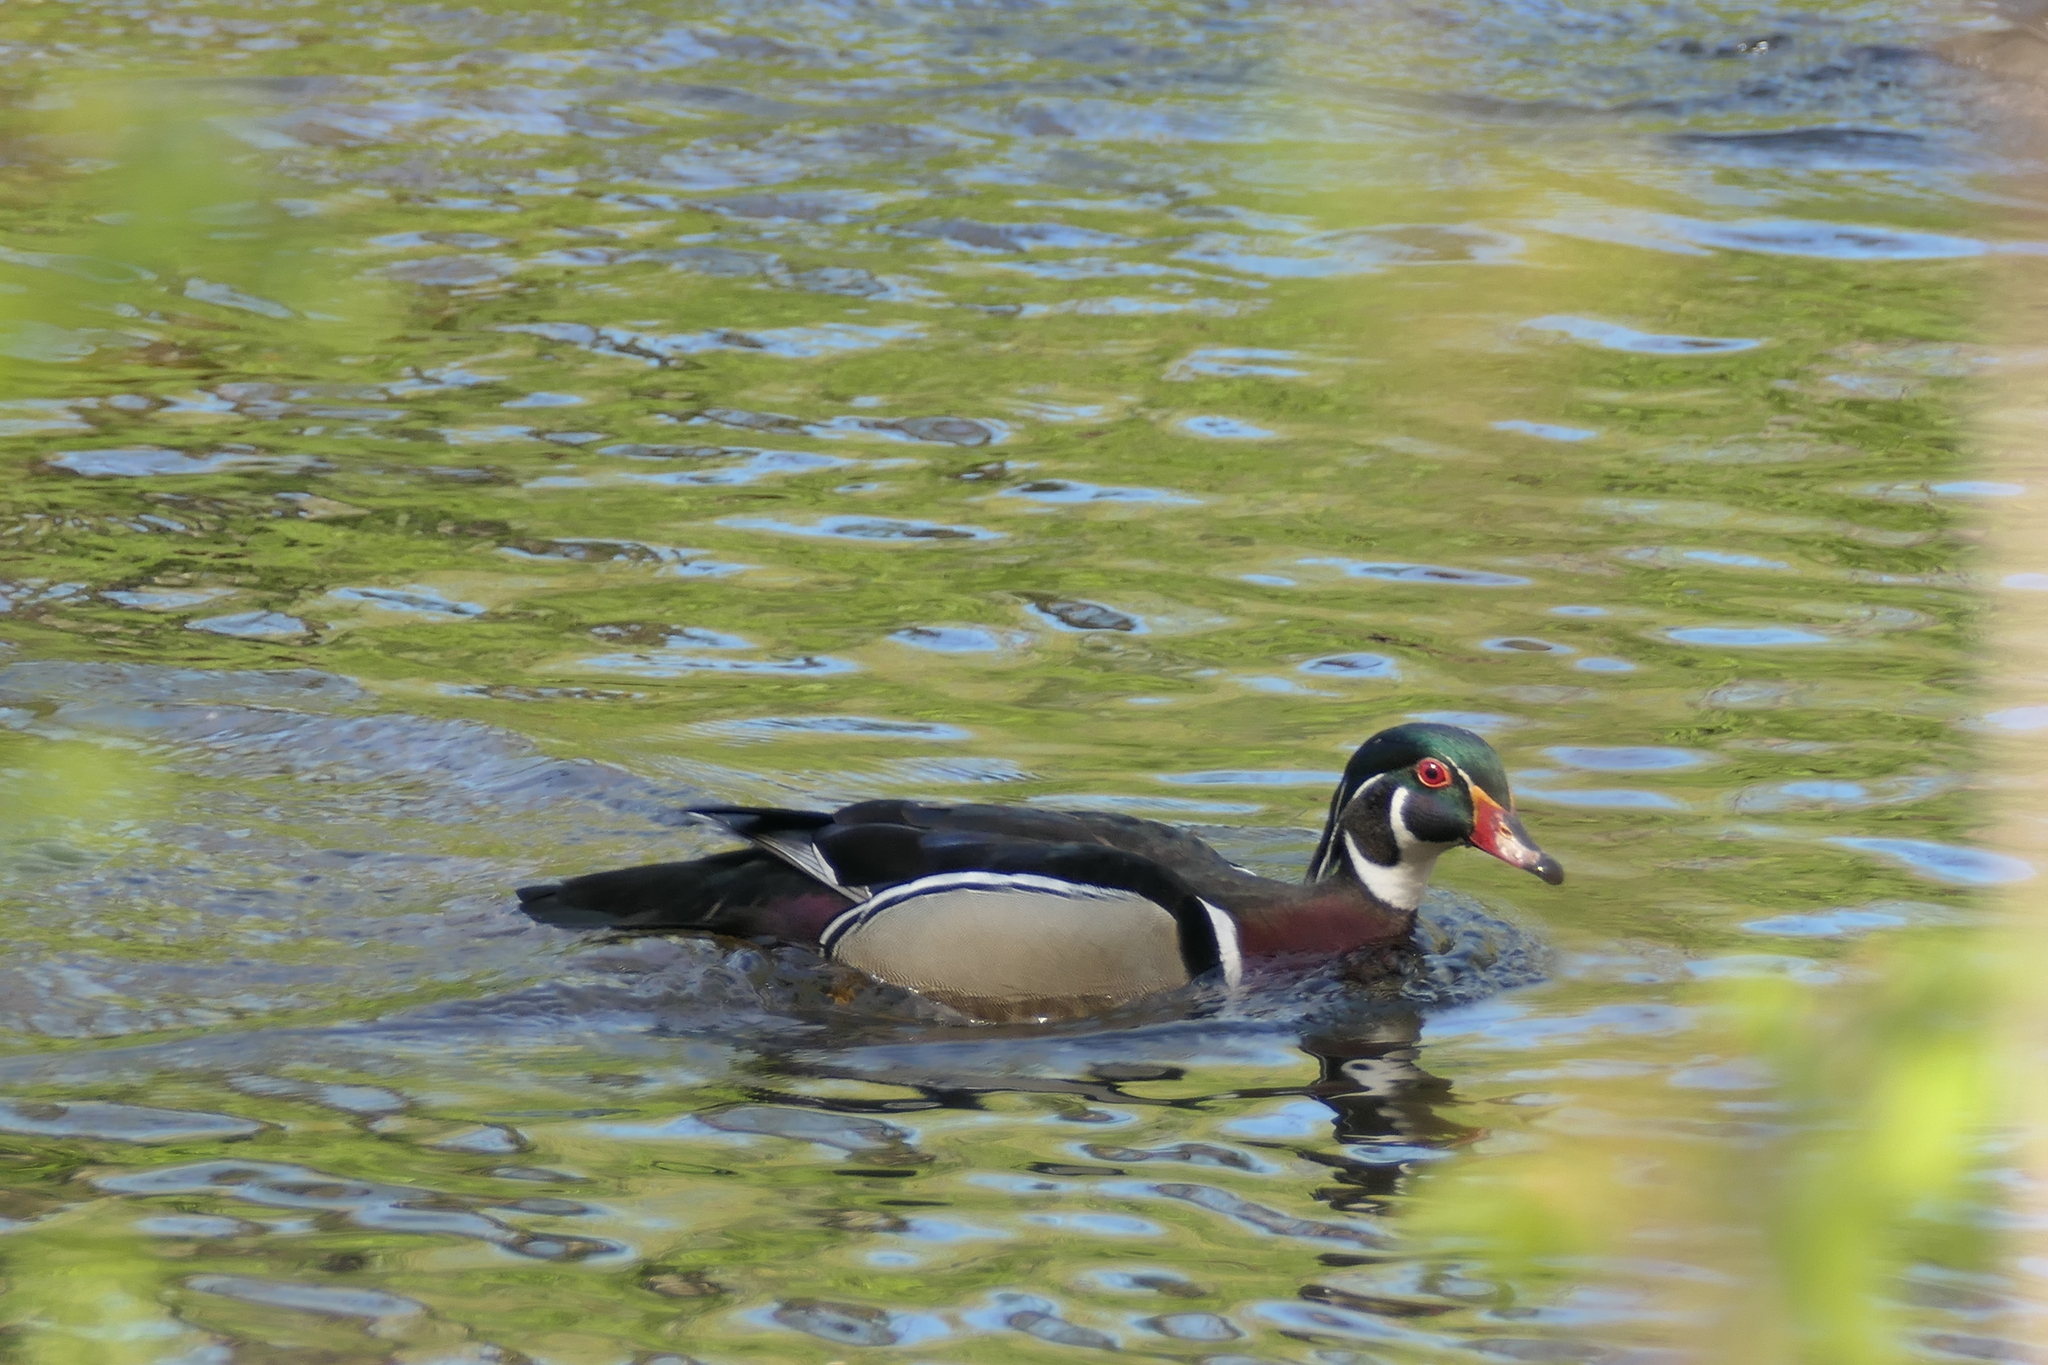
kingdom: Animalia
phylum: Chordata
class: Aves
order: Anseriformes
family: Anatidae
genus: Aix
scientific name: Aix sponsa
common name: Wood duck
